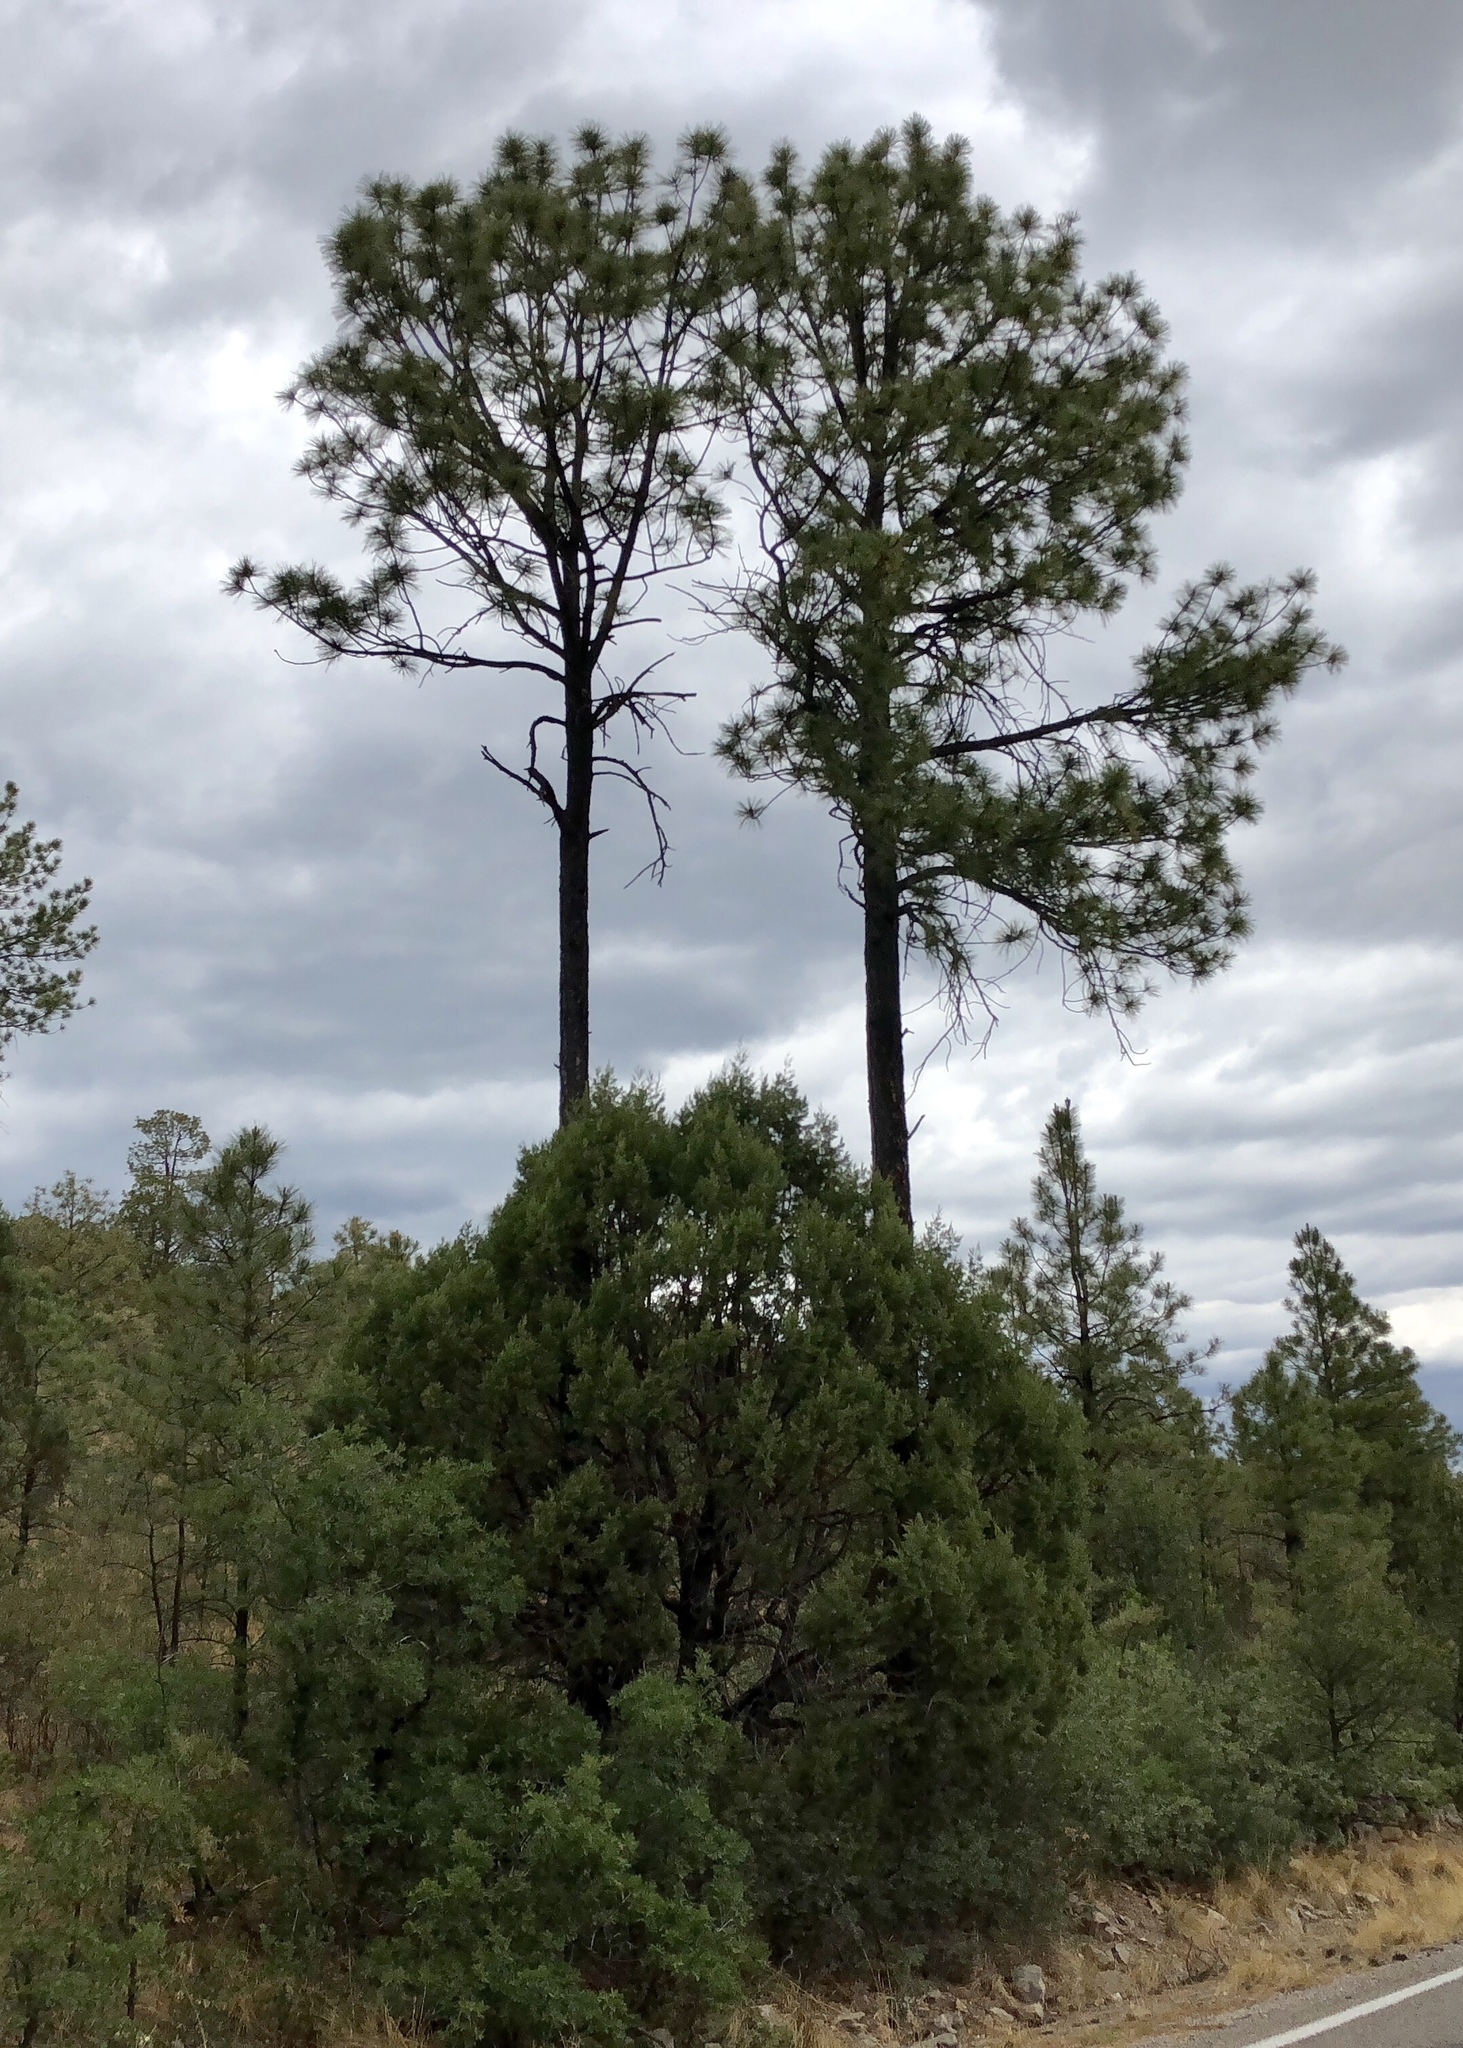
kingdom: Plantae
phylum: Tracheophyta
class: Pinopsida
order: Pinales
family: Pinaceae
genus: Pinus
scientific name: Pinus ponderosa
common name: Western yellow-pine
